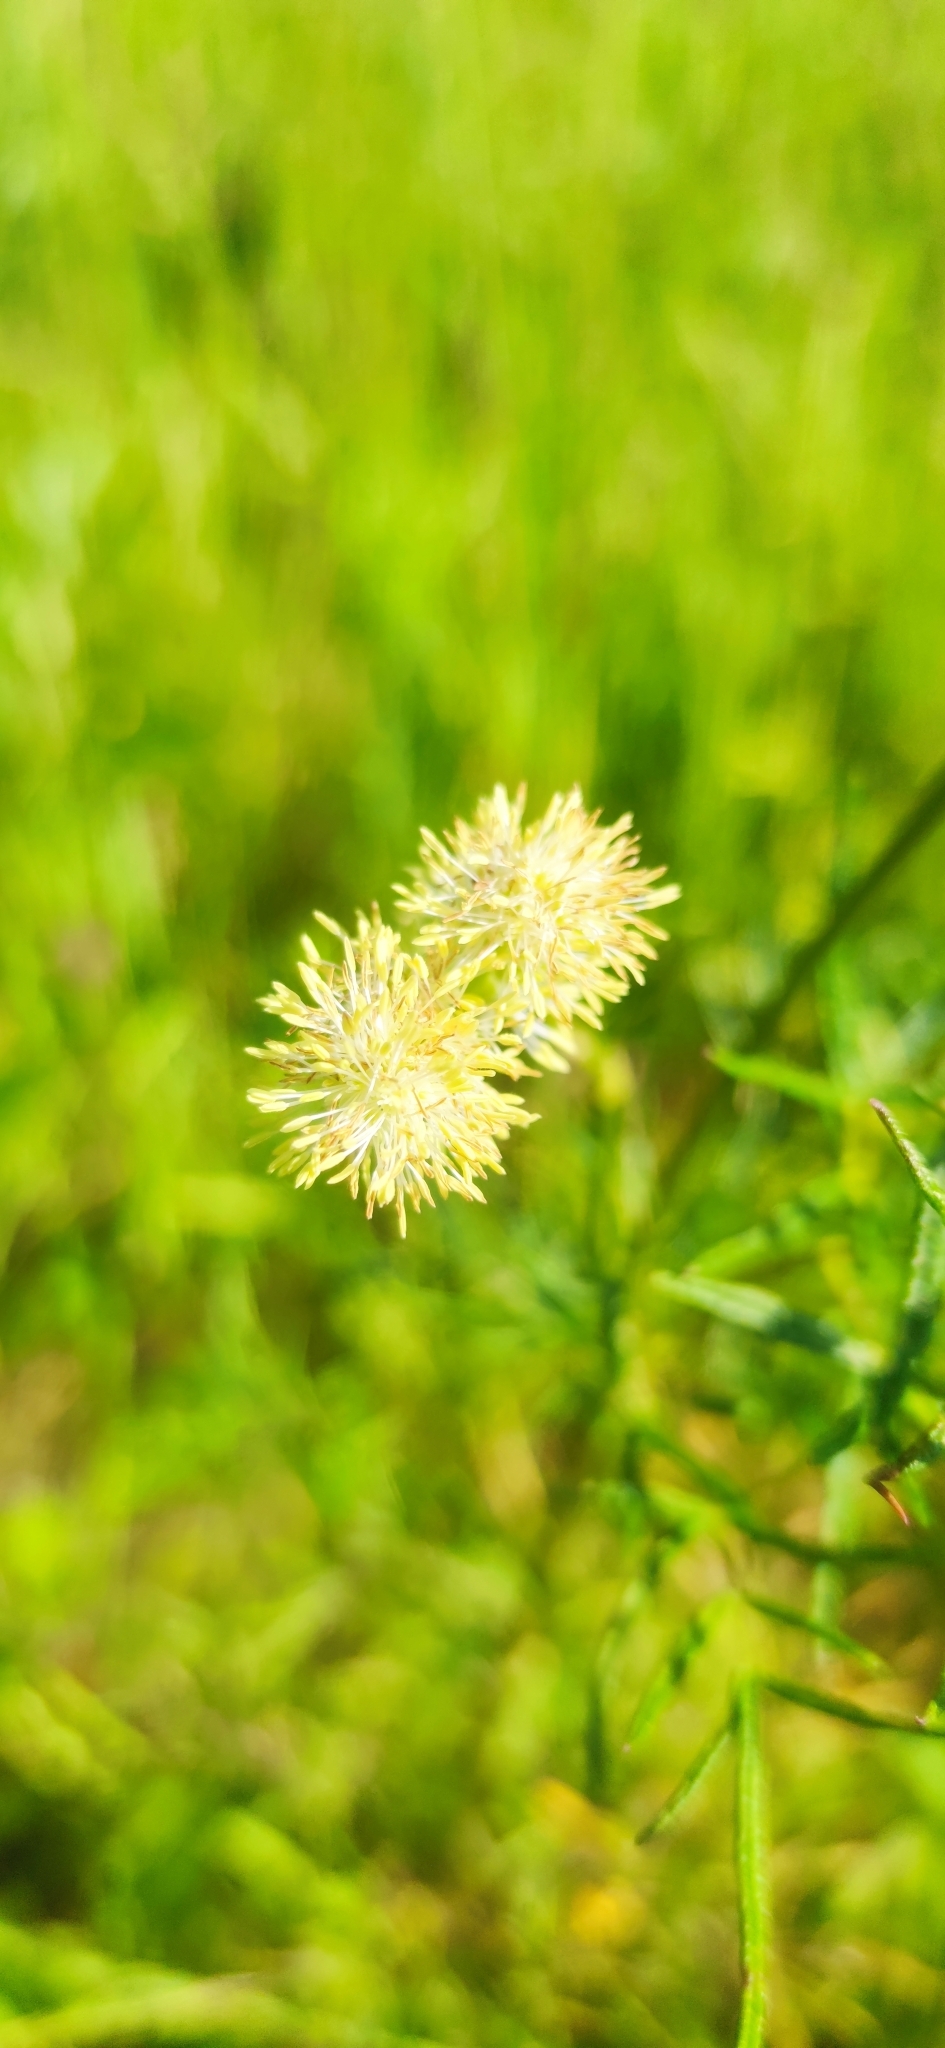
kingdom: Plantae
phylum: Tracheophyta
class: Magnoliopsida
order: Ranunculales
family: Ranunculaceae
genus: Thalictrum
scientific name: Thalictrum lucidum
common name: Shining meadow-rue
